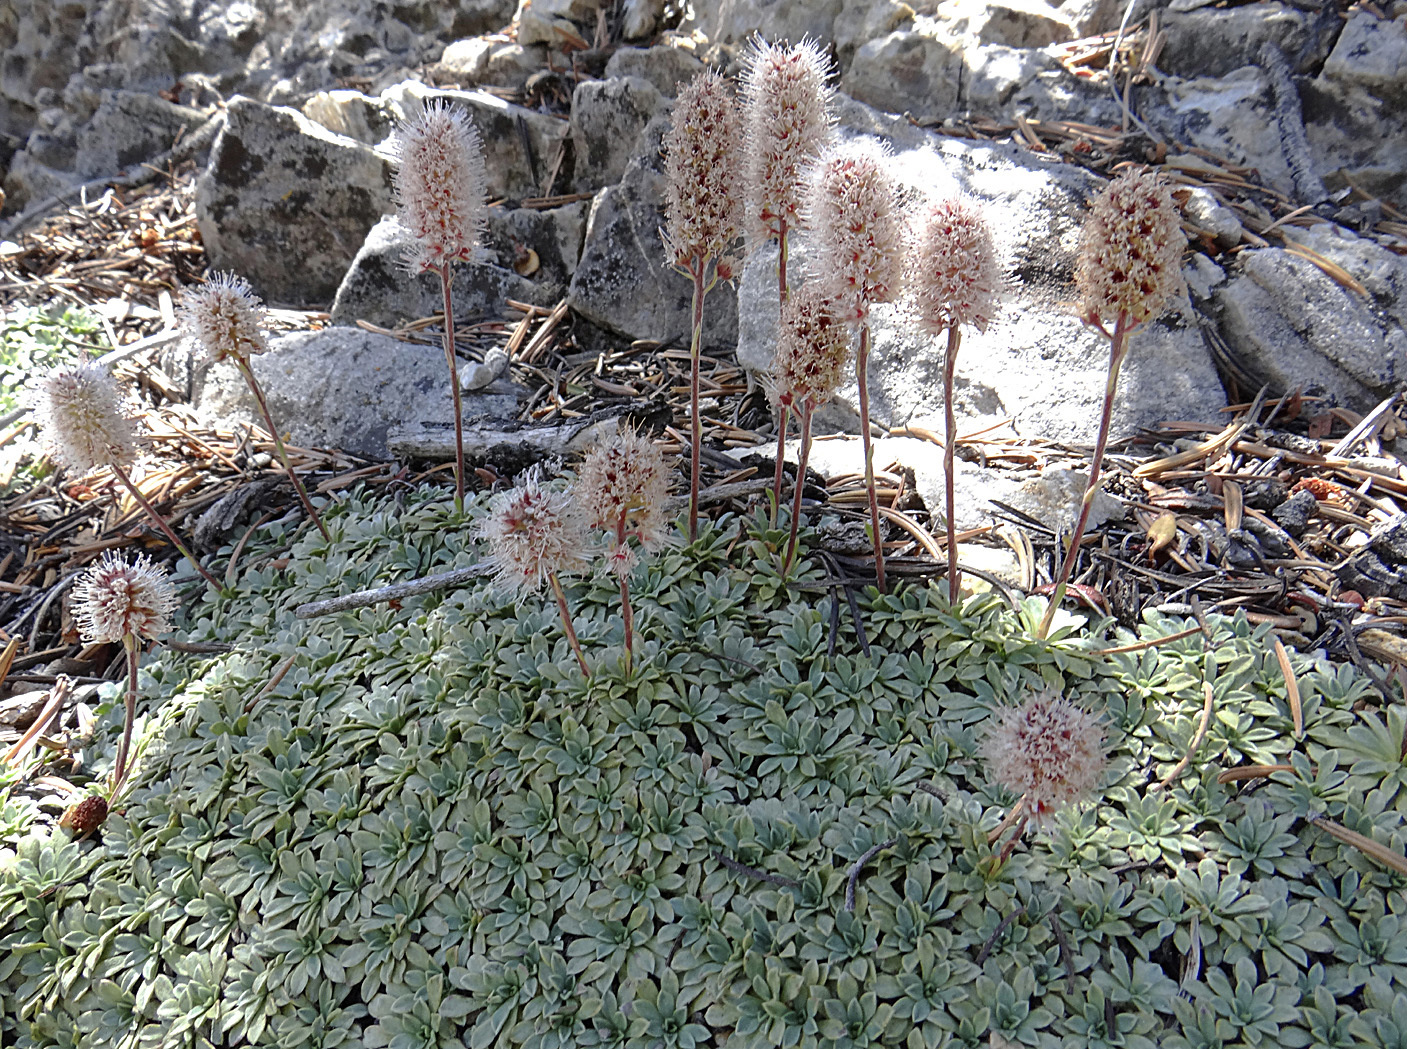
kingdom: Plantae
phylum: Tracheophyta
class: Magnoliopsida
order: Rosales
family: Rosaceae
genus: Petrophytum
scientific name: Petrophytum caespitosum
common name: Mat rockspirea
